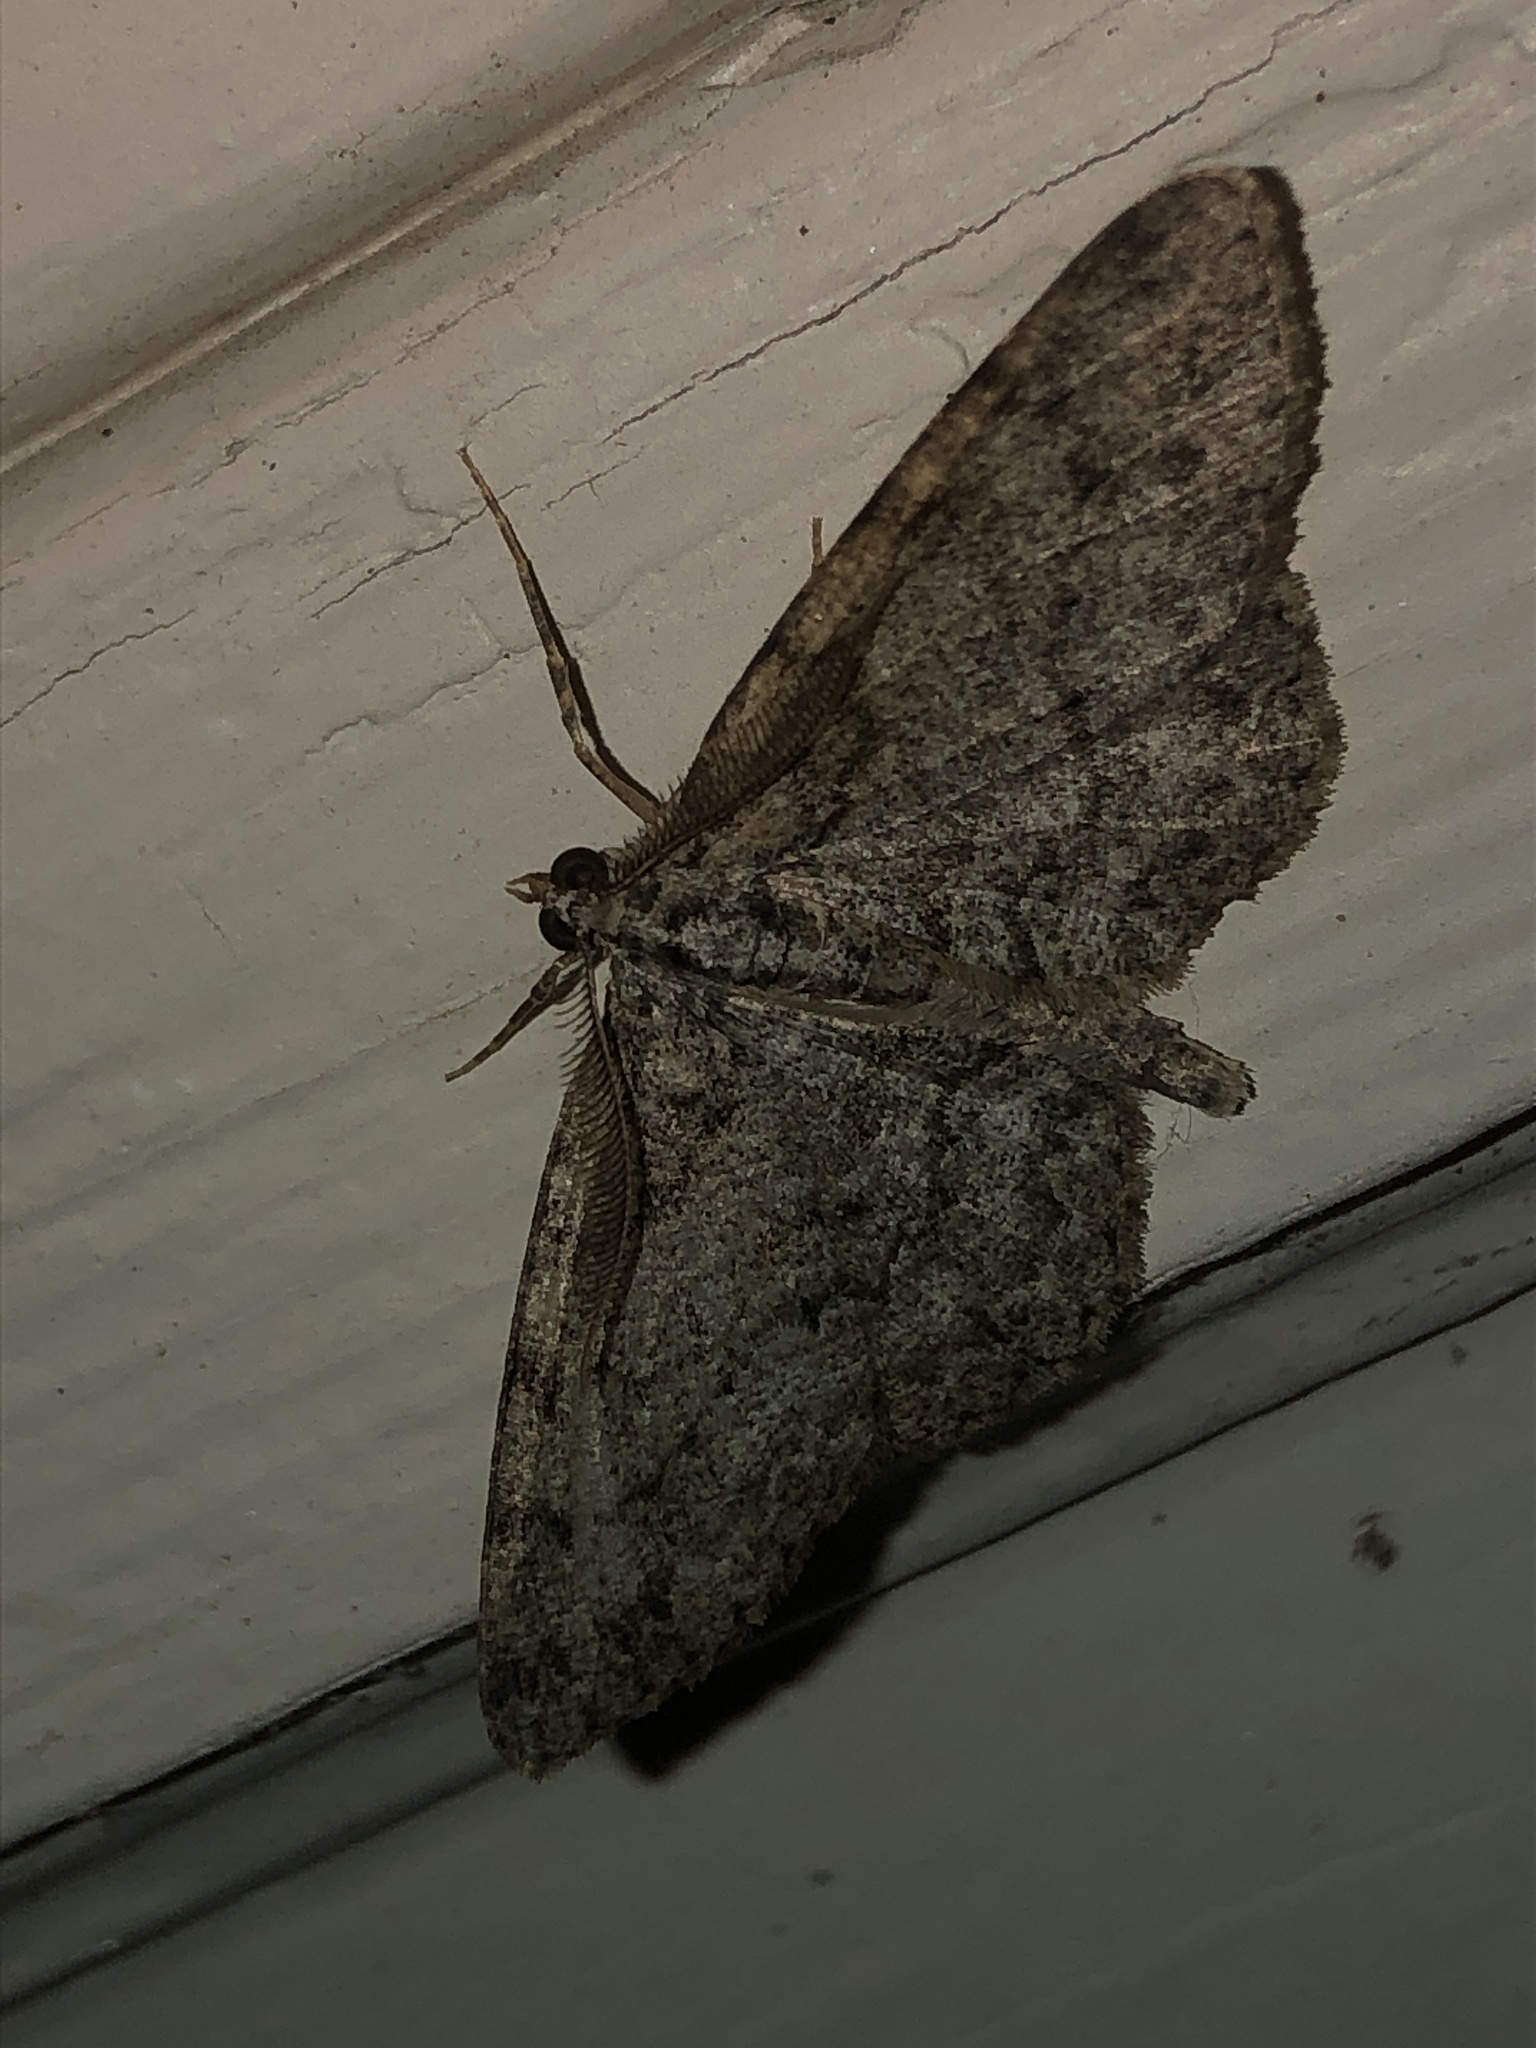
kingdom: Animalia
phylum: Arthropoda
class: Insecta
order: Lepidoptera
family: Geometridae
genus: Protoboarmia
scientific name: Protoboarmia porcelaria
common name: Porcelain gray
